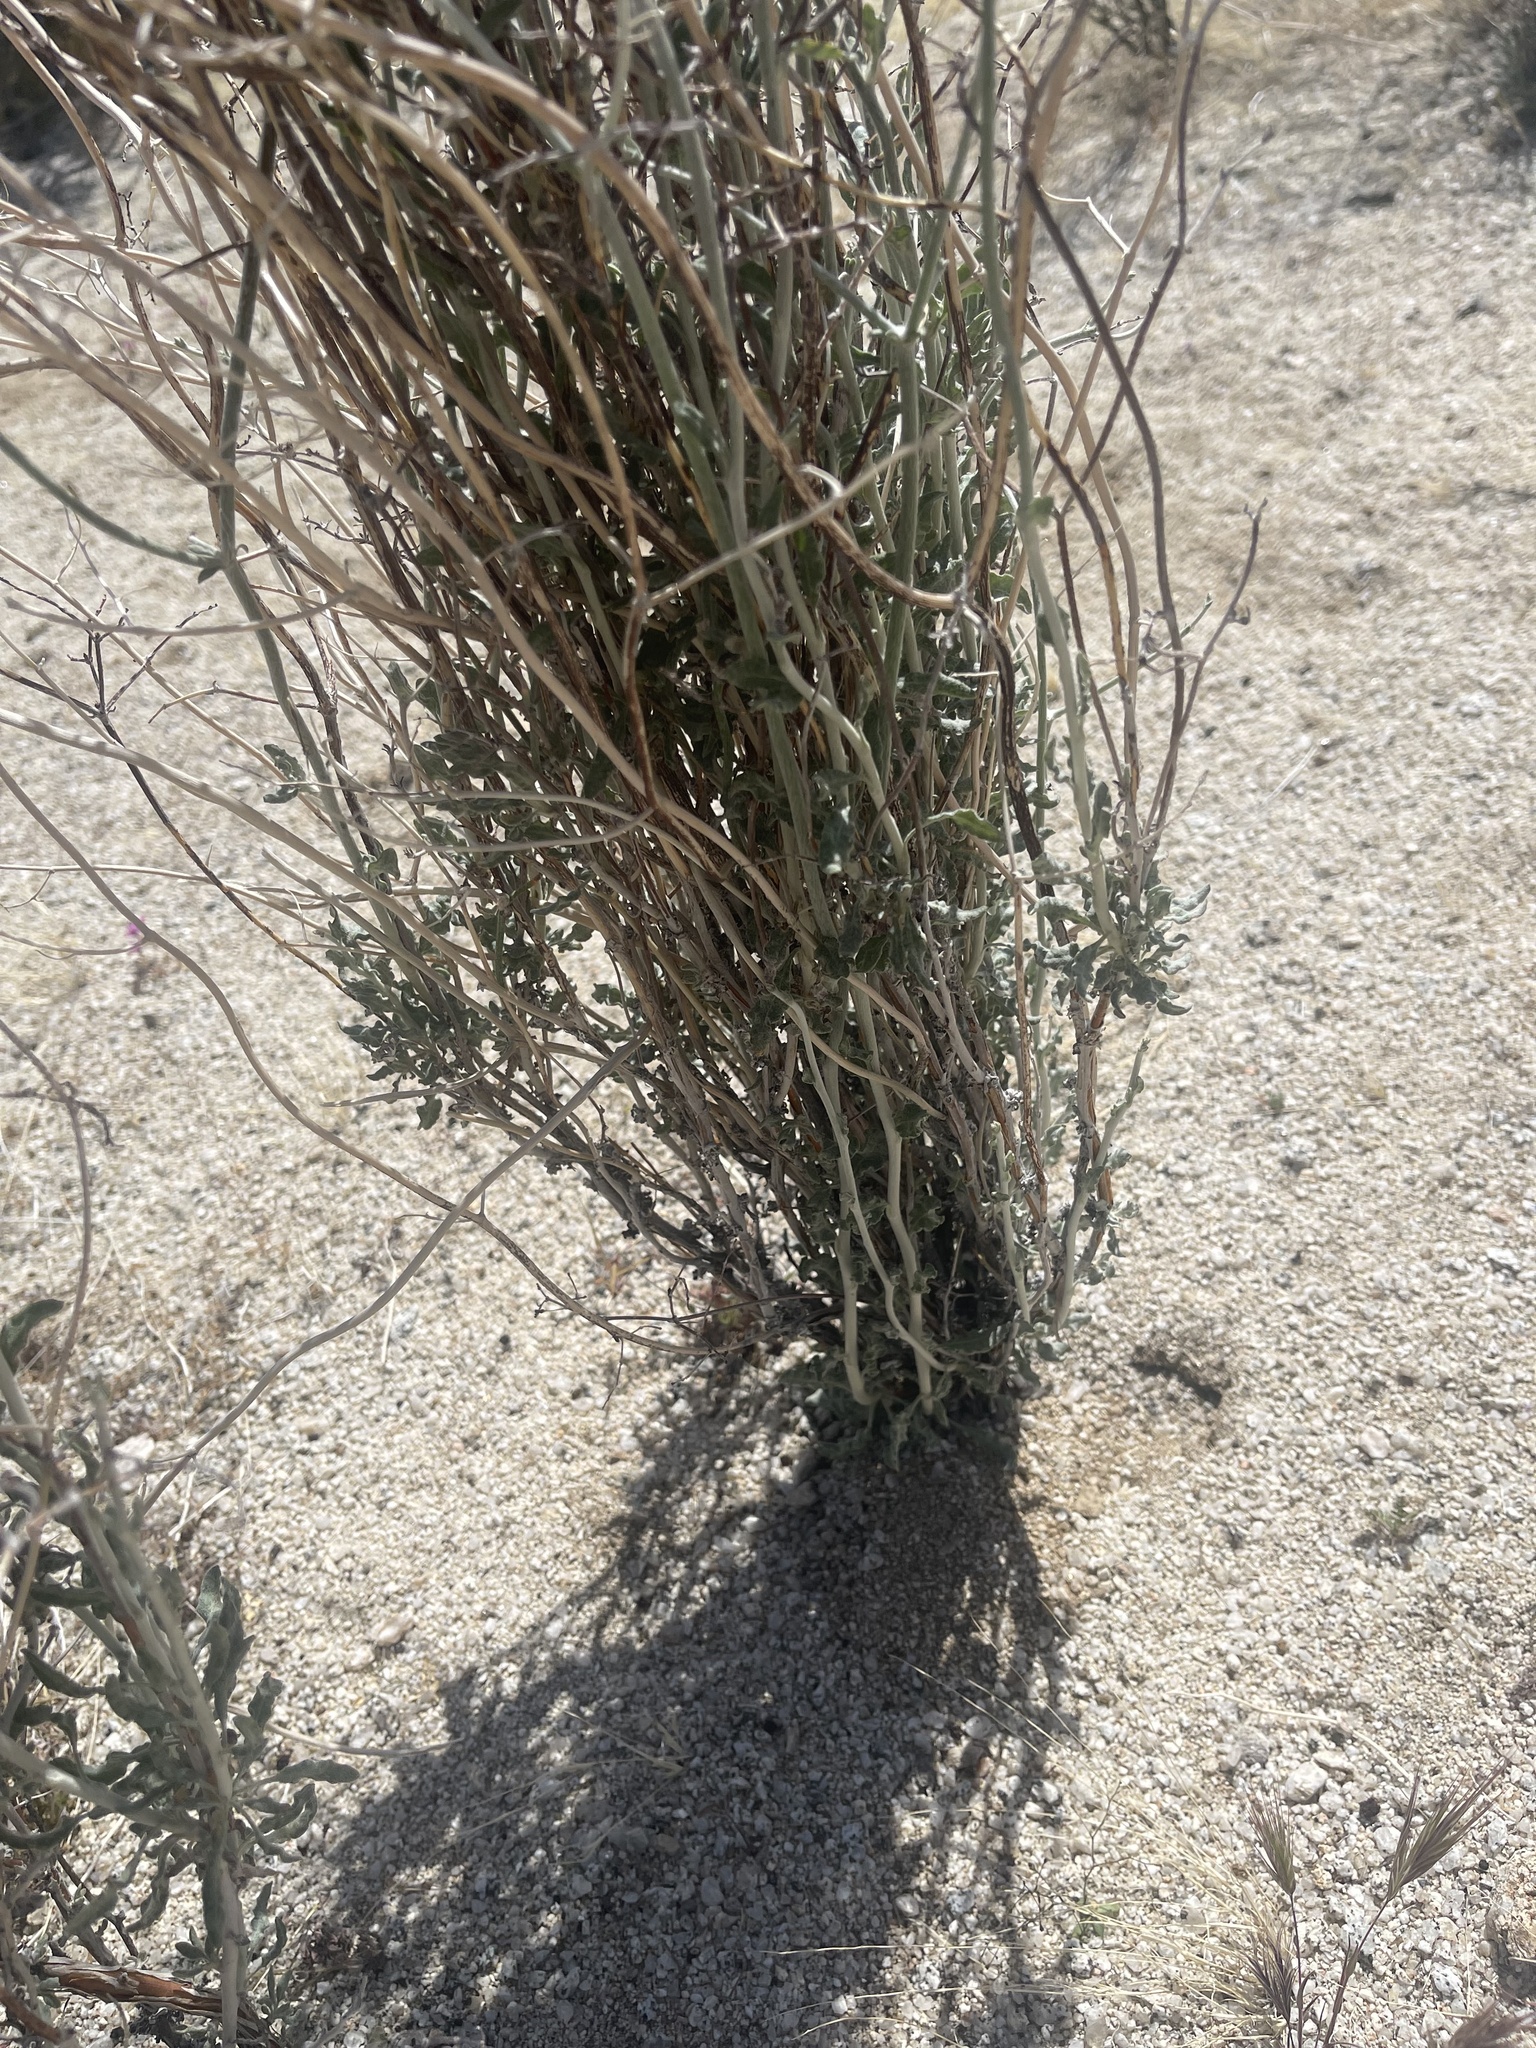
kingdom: Plantae
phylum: Tracheophyta
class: Magnoliopsida
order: Caryophyllales
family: Polygonaceae
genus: Eriogonum
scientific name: Eriogonum plumatella
